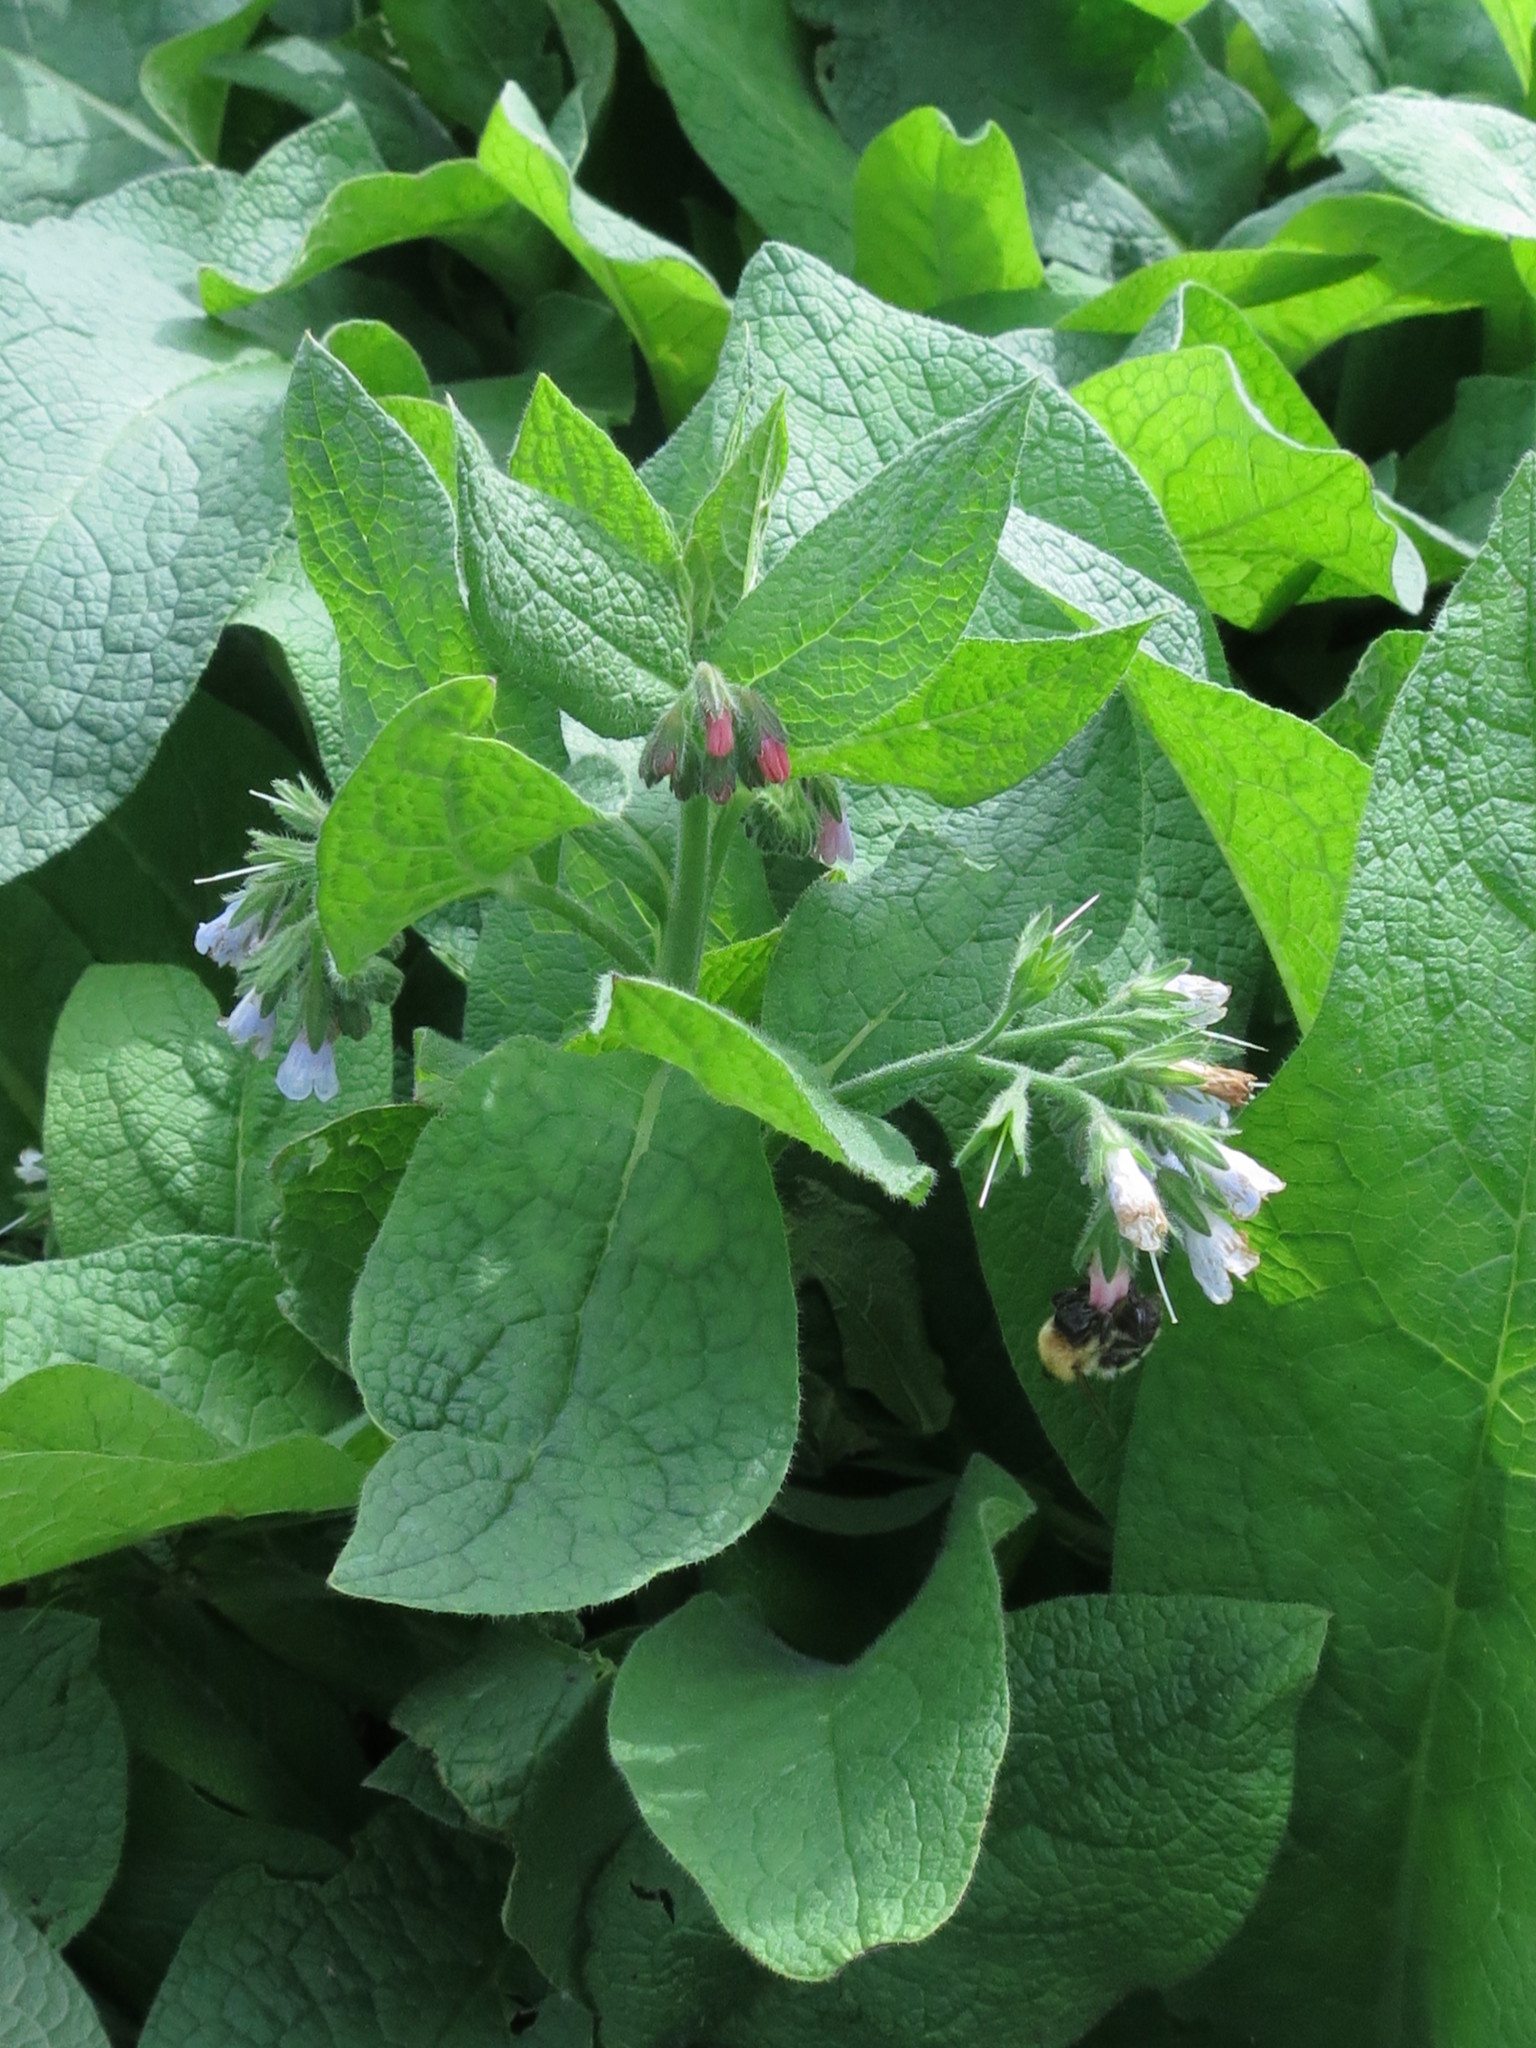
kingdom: Plantae
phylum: Tracheophyta
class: Magnoliopsida
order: Boraginales
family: Boraginaceae
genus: Symphytum
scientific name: Symphytum caucasicum
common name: Caucasian comfrey
